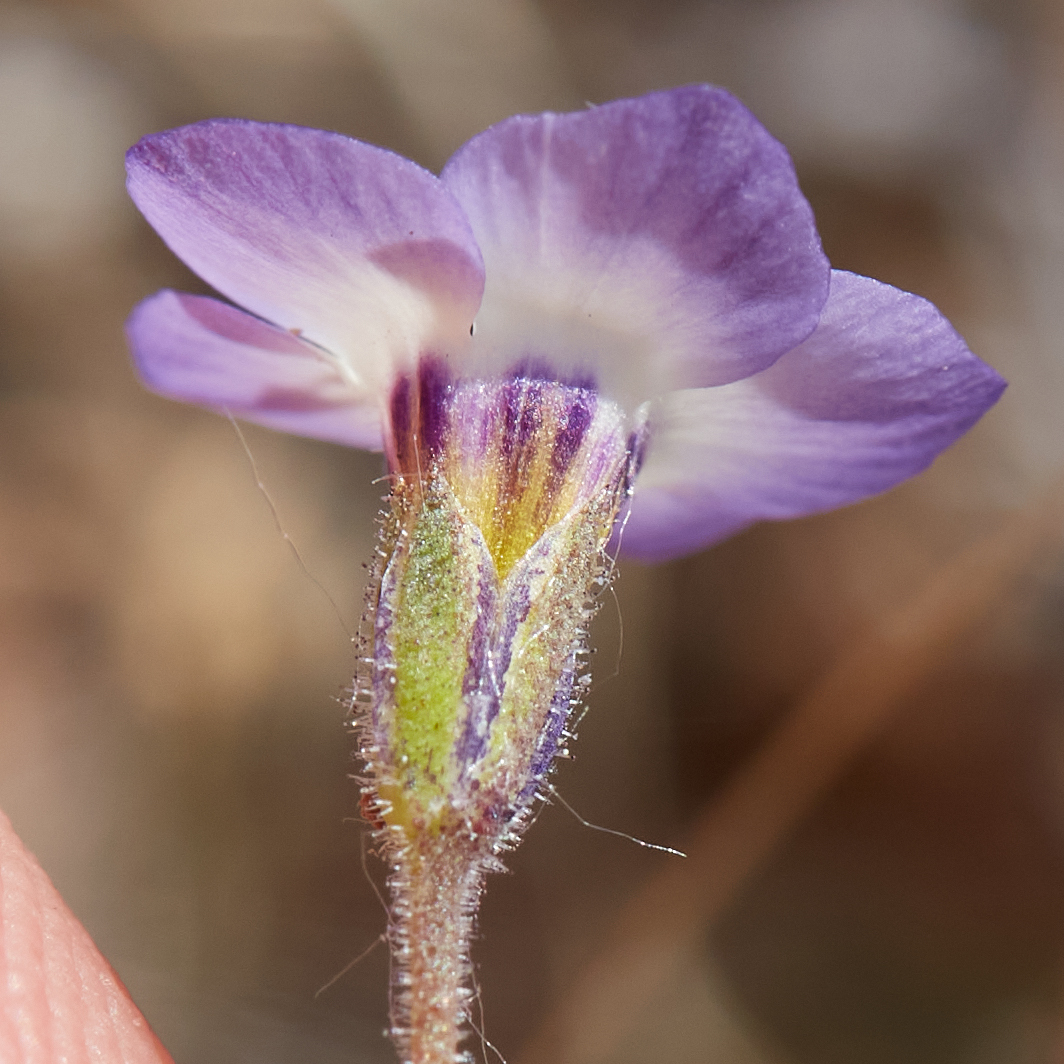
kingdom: Plantae
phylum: Tracheophyta
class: Magnoliopsida
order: Ericales
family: Polemoniaceae
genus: Gilia
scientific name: Gilia tricolor
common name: Bird's-eyes
